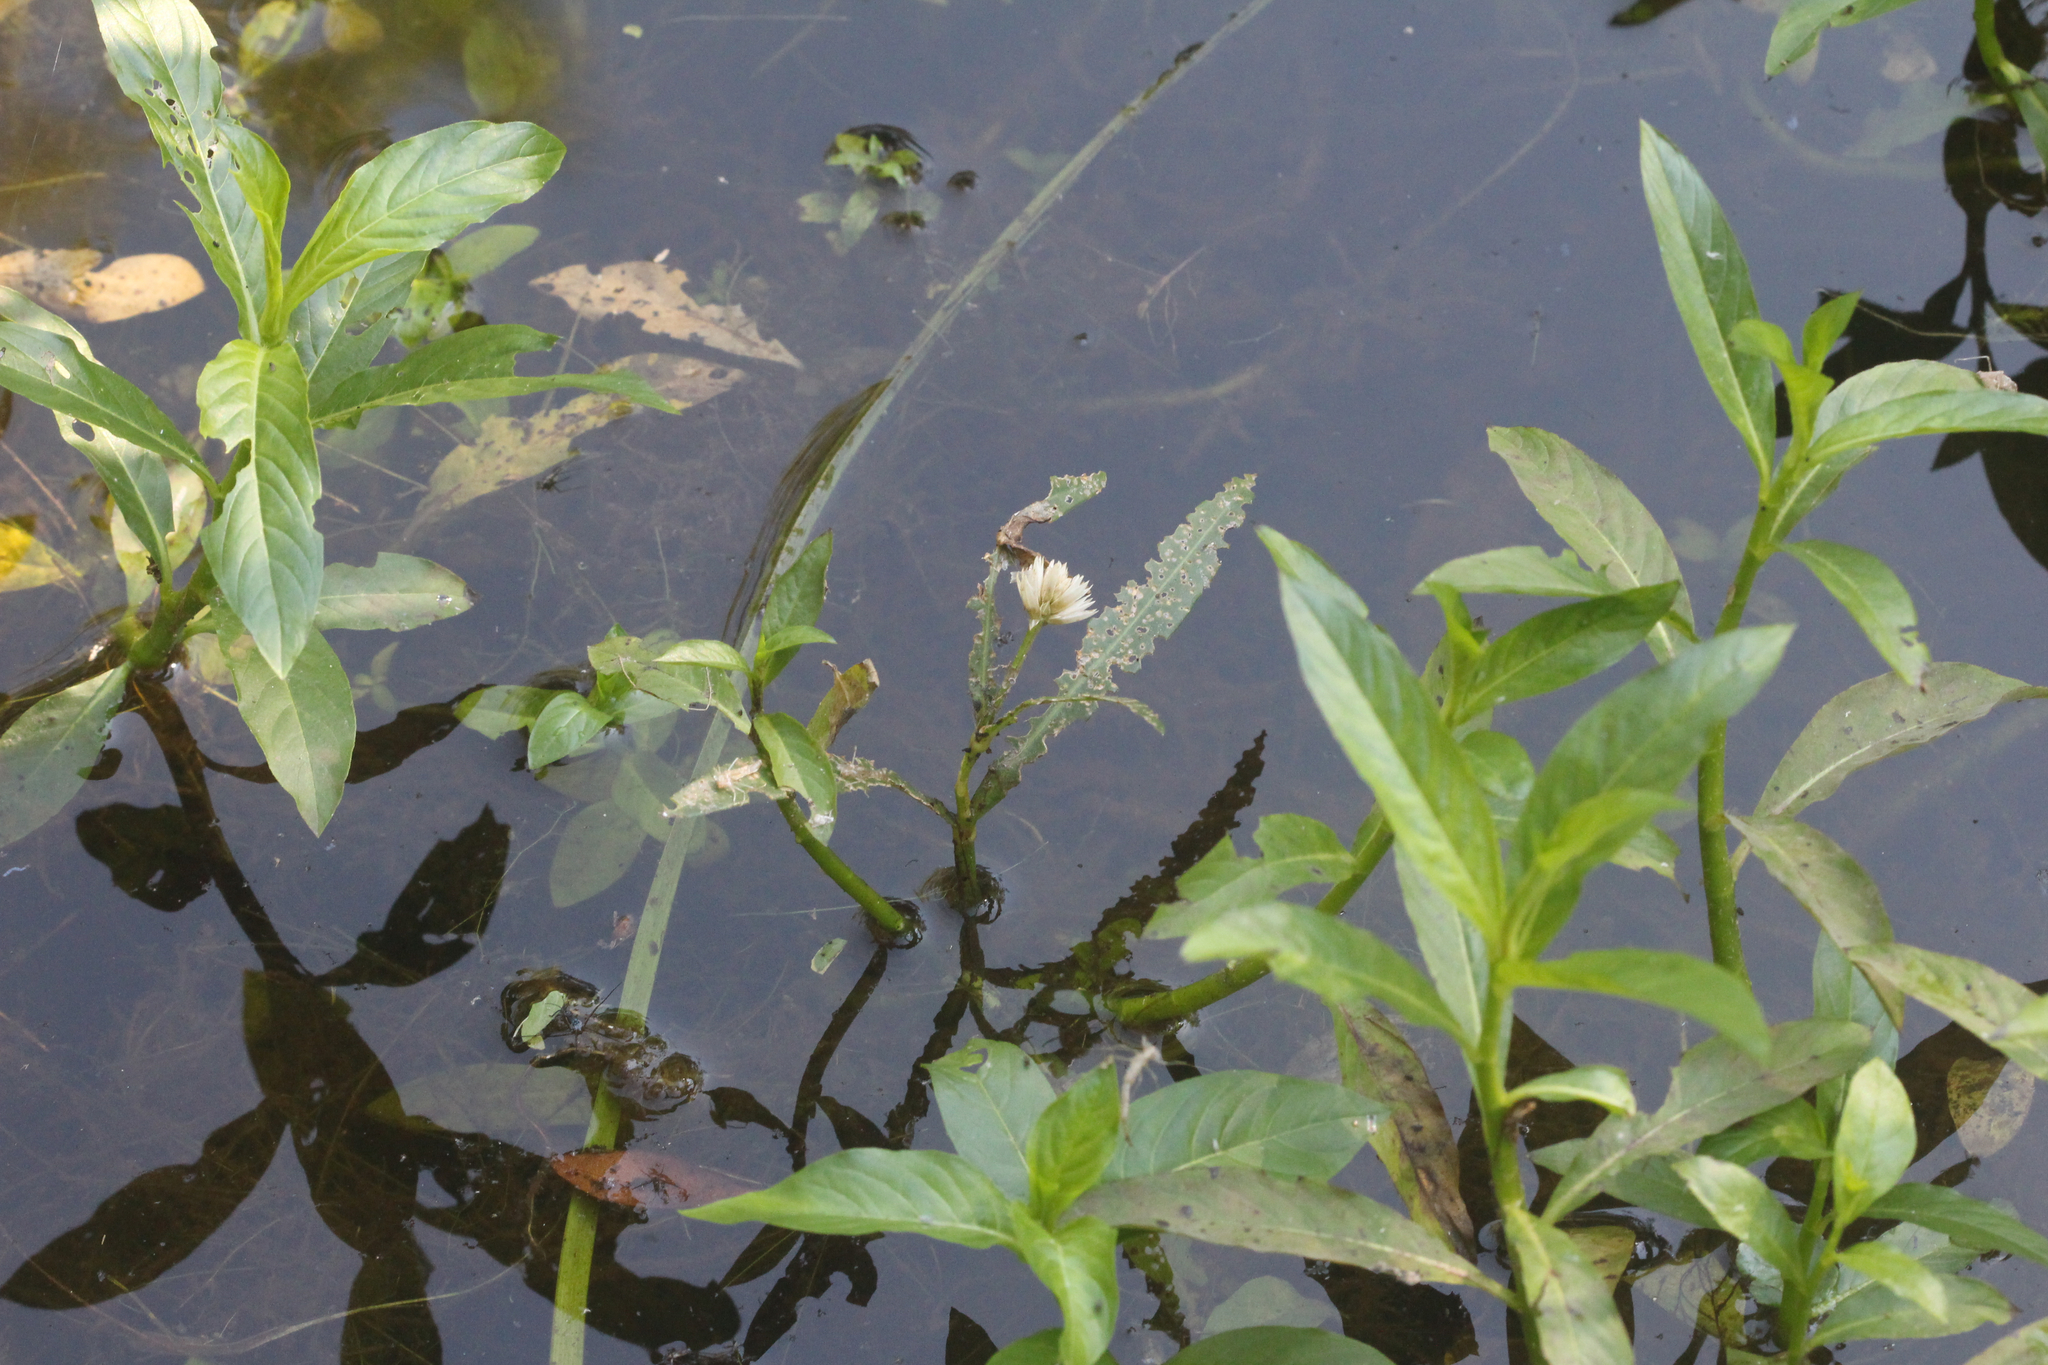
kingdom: Plantae
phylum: Tracheophyta
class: Magnoliopsida
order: Caryophyllales
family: Amaranthaceae
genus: Alternanthera
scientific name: Alternanthera philoxeroides
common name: Alligatorweed
